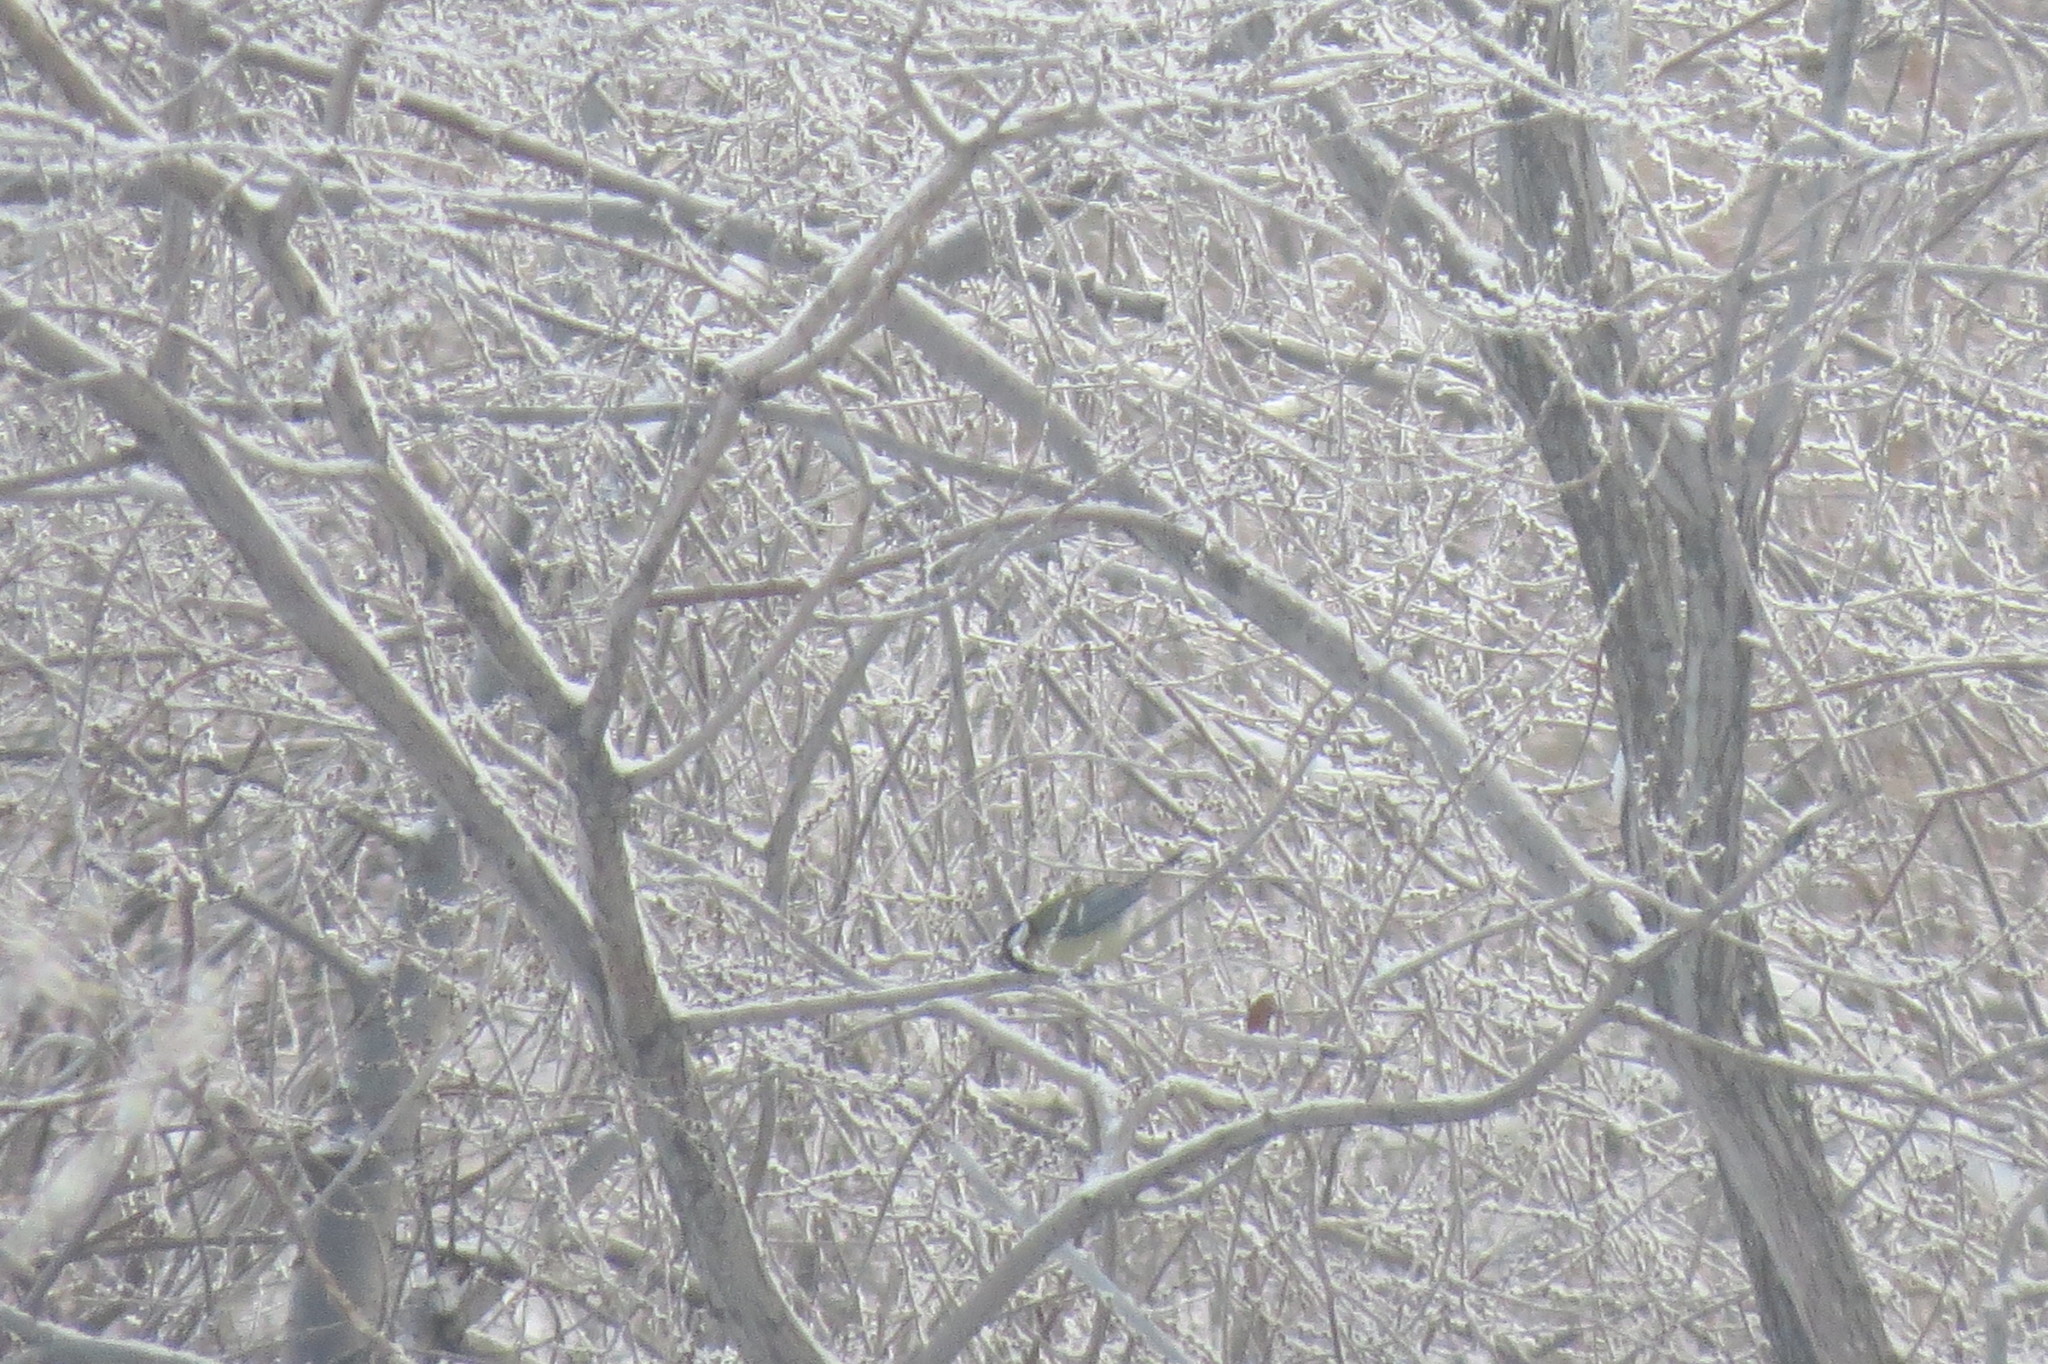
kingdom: Animalia
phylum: Chordata
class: Aves
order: Passeriformes
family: Paridae
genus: Parus
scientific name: Parus major
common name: Great tit
